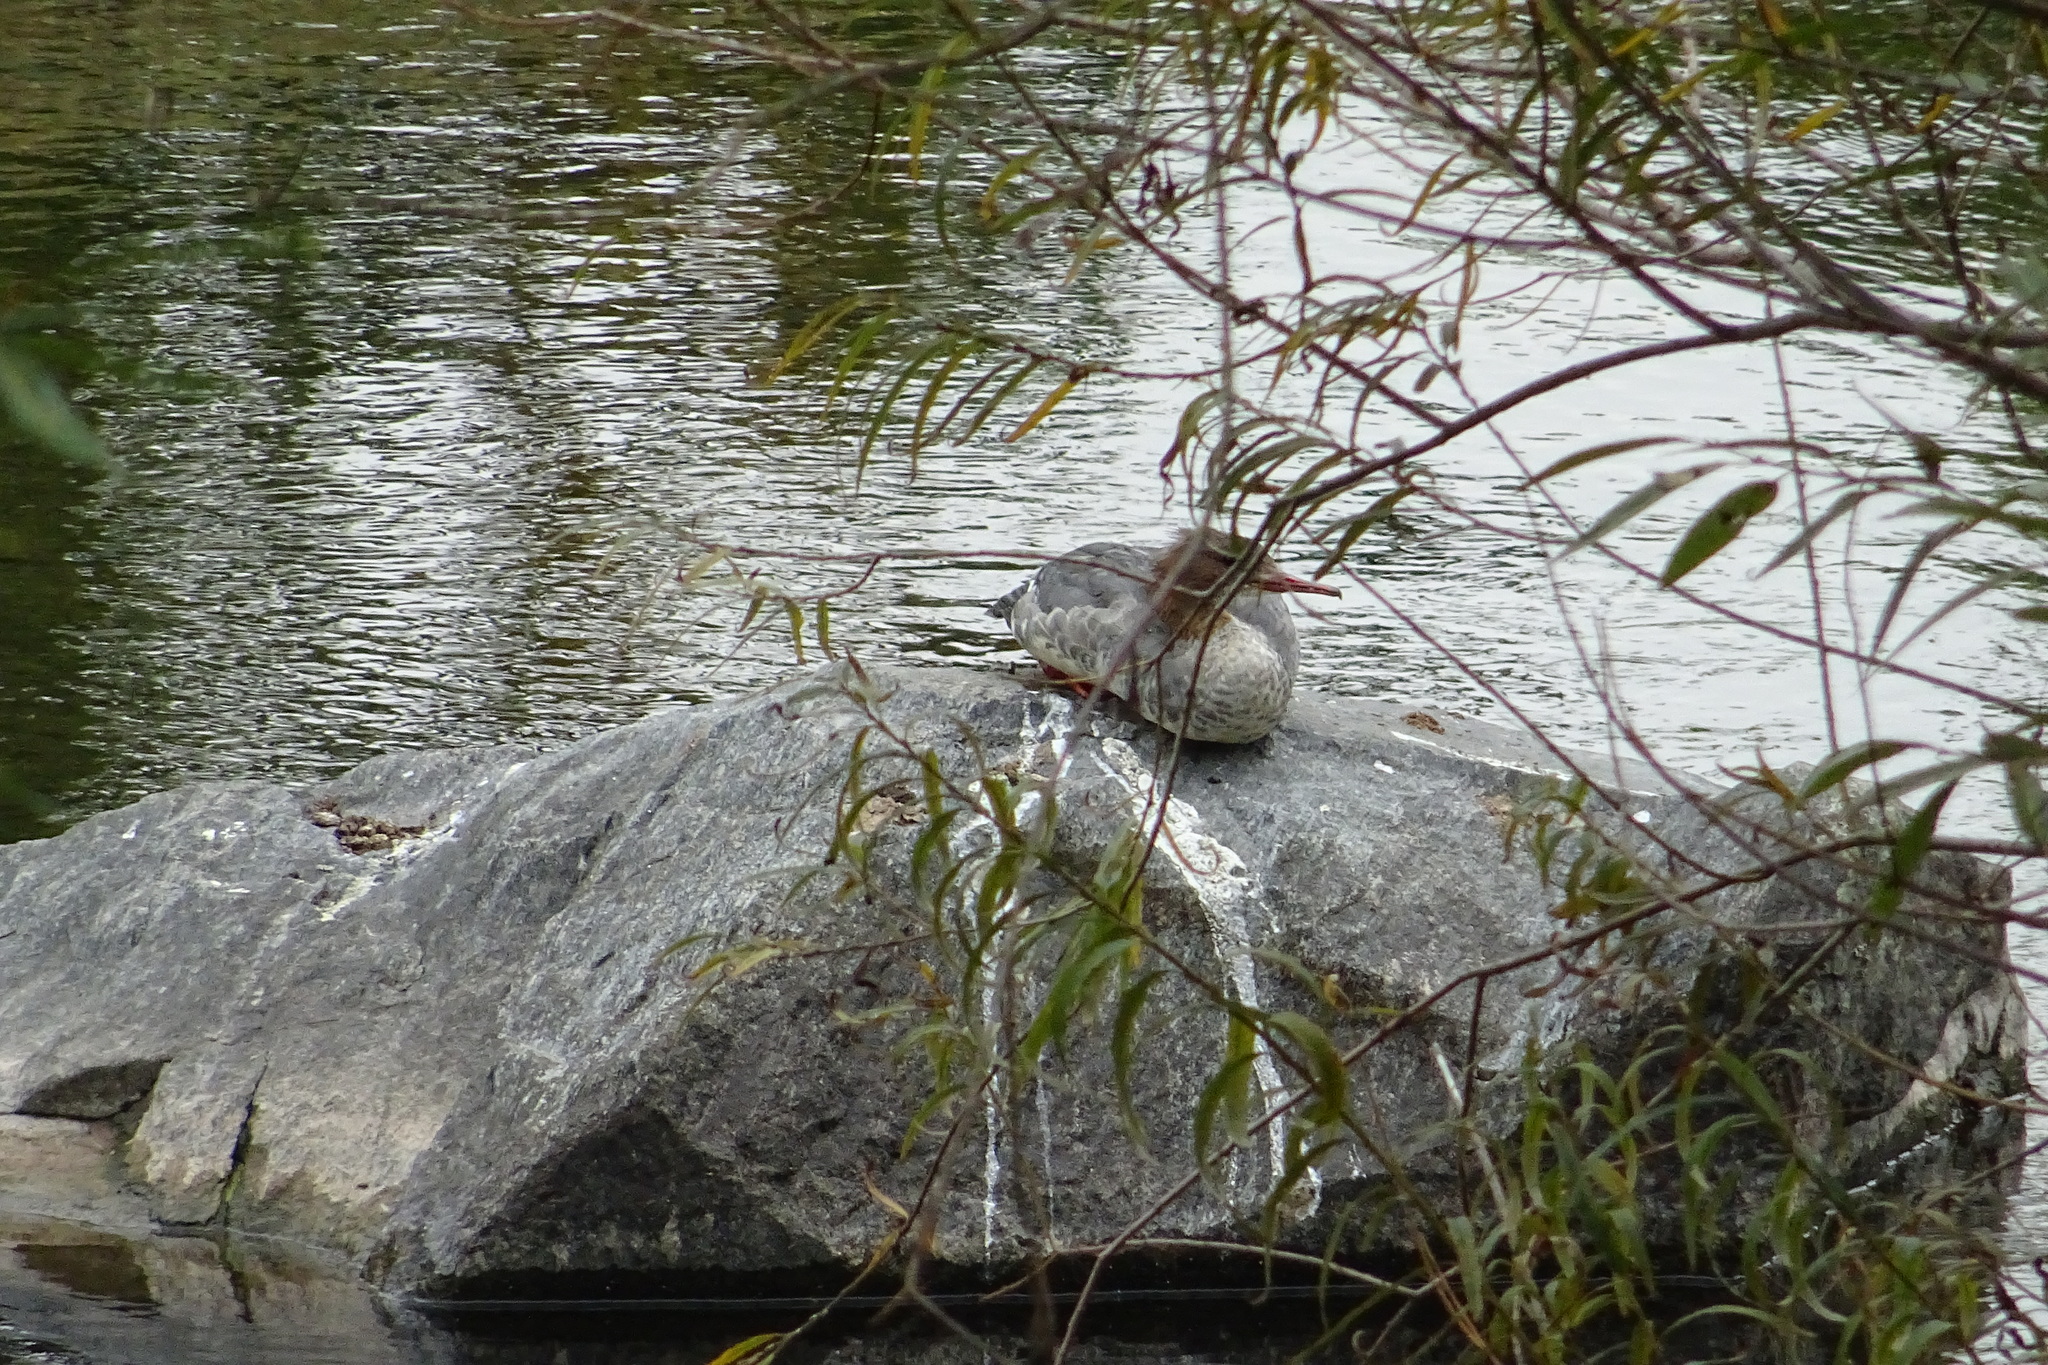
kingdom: Animalia
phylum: Chordata
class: Aves
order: Anseriformes
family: Anatidae
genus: Mergus
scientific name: Mergus merganser
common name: Common merganser
